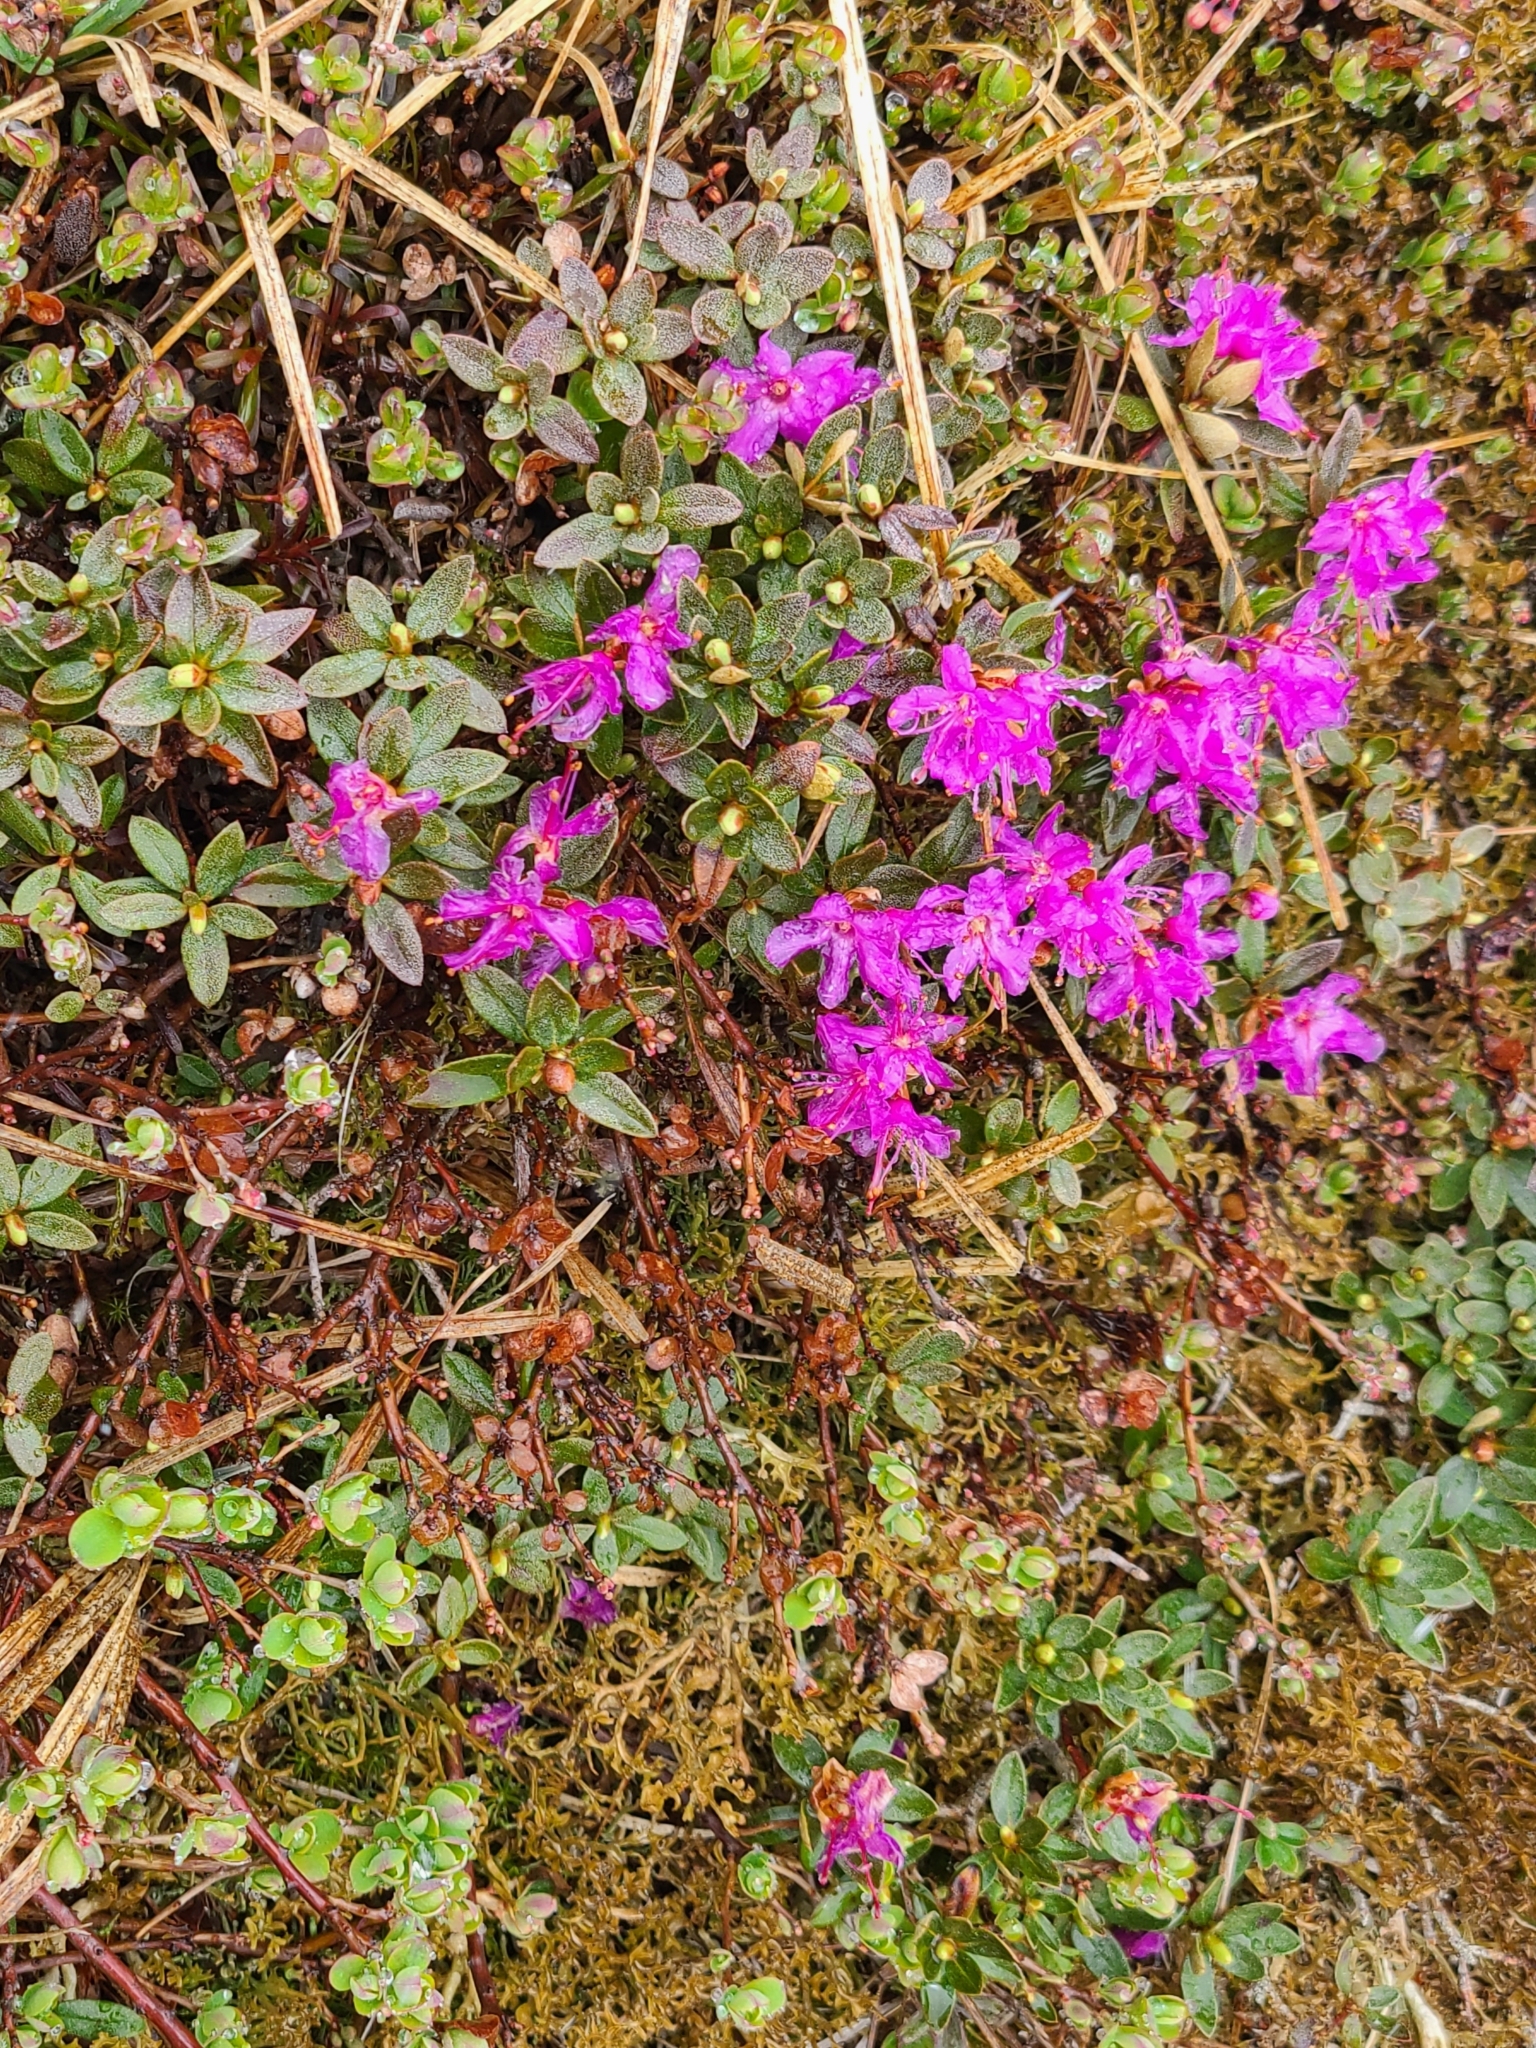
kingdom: Plantae
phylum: Tracheophyta
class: Magnoliopsida
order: Ericales
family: Ericaceae
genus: Rhododendron
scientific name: Rhododendron lapponicum
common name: Lapland rhododendron
